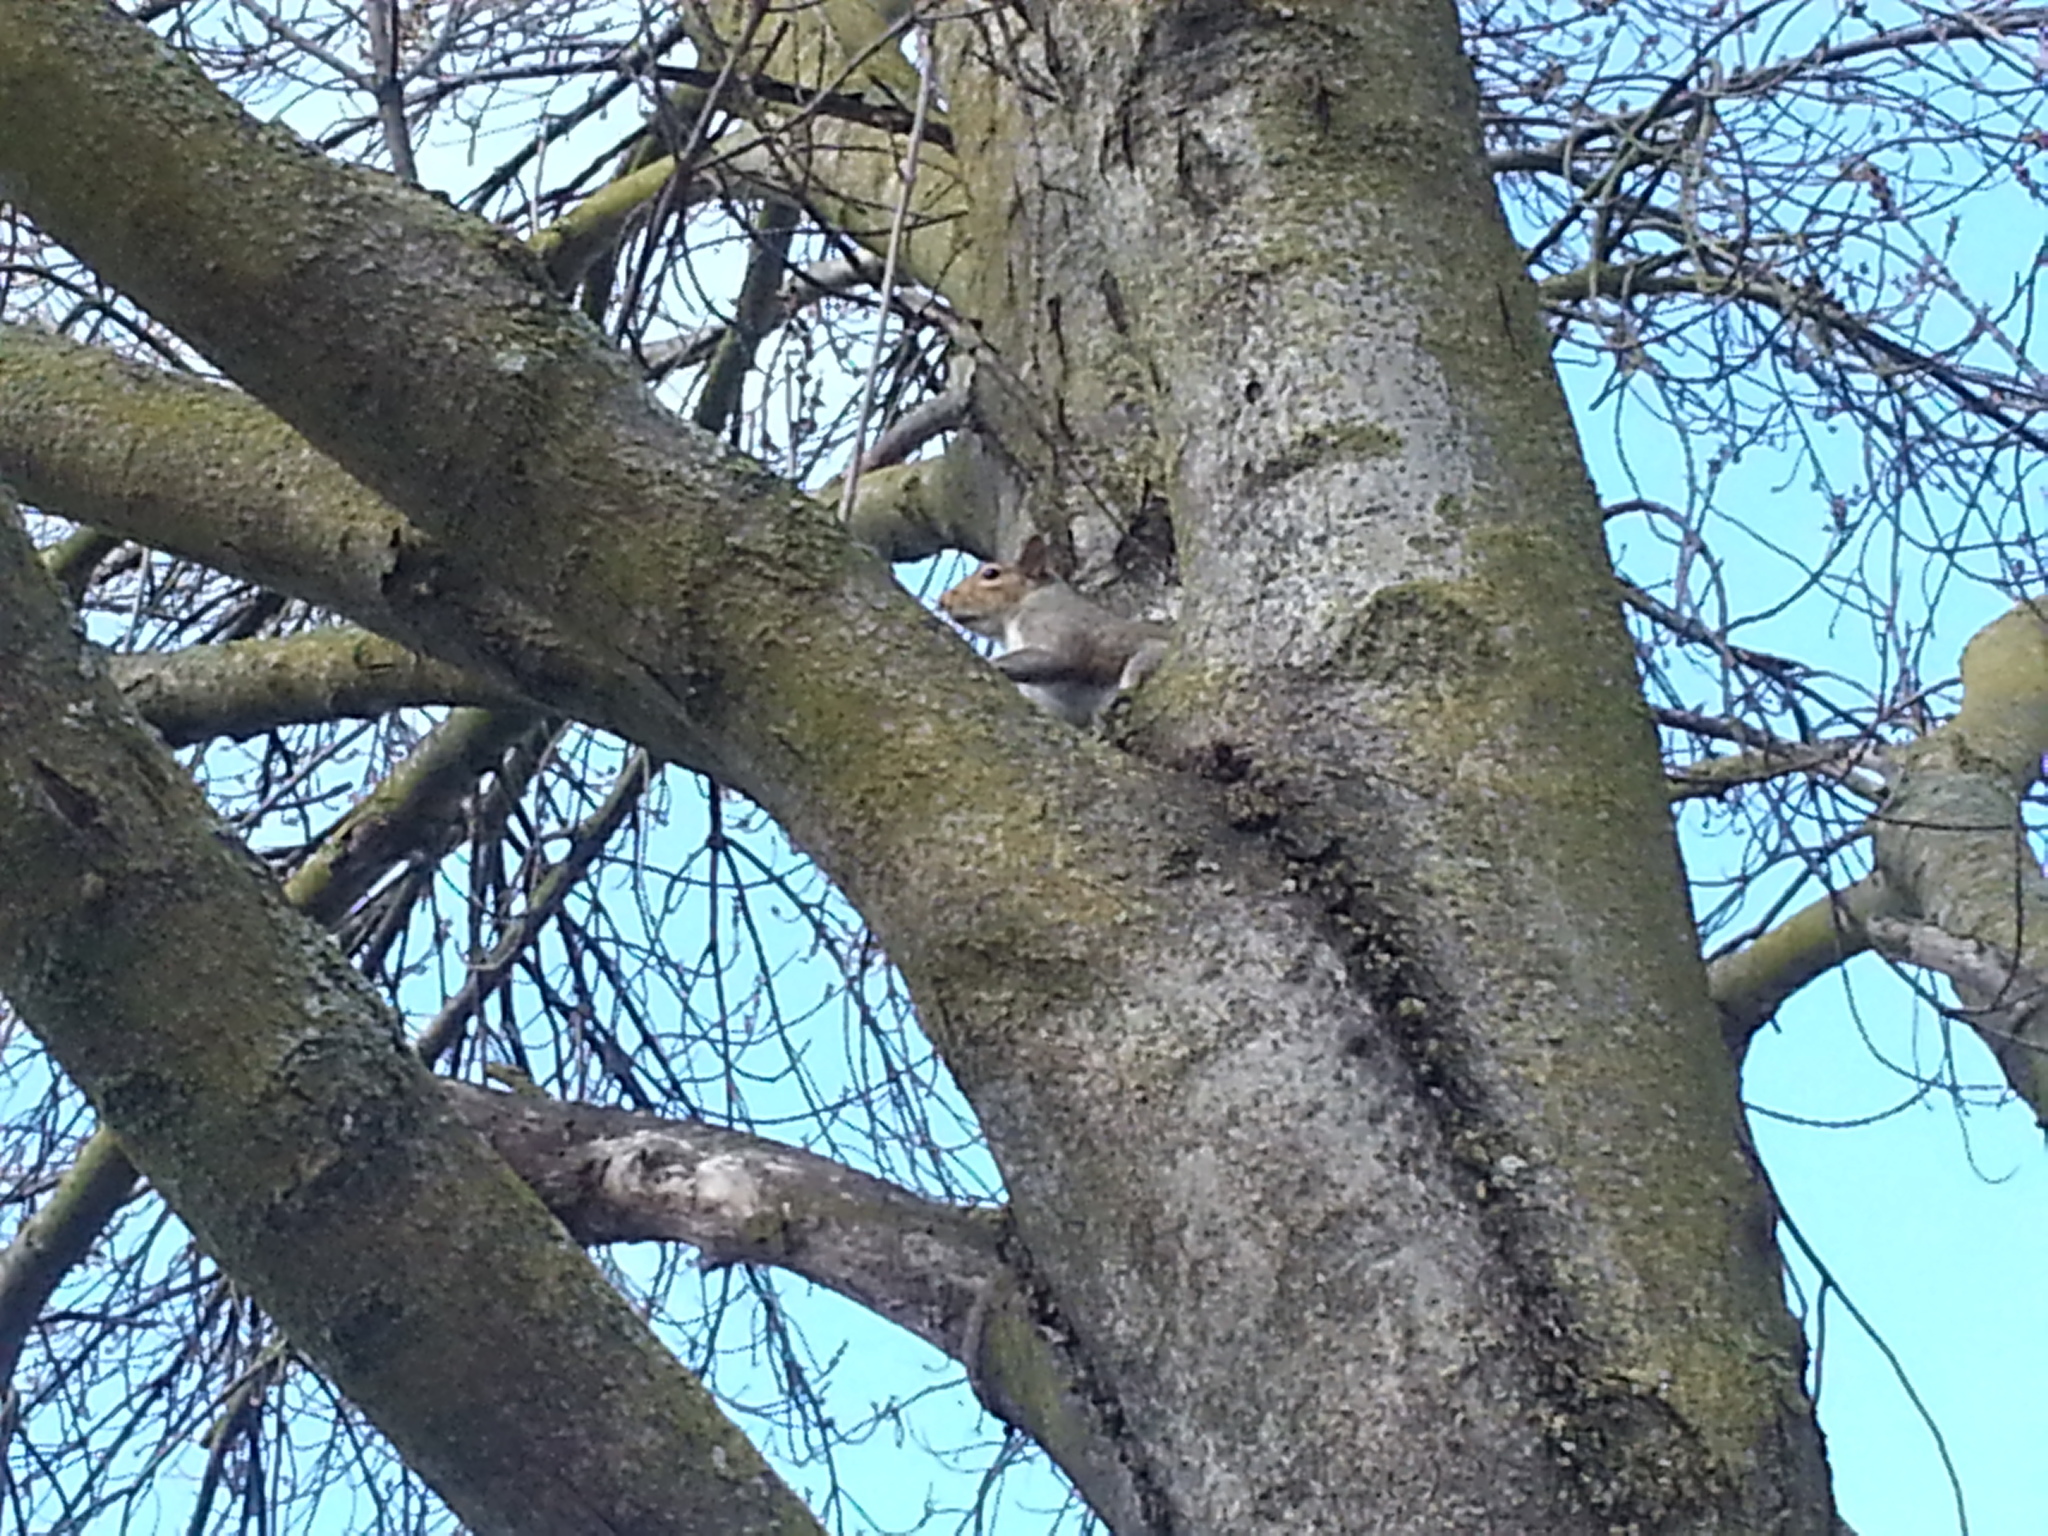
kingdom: Animalia
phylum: Chordata
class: Mammalia
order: Rodentia
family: Sciuridae
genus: Sciurus
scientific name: Sciurus carolinensis
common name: Eastern gray squirrel
